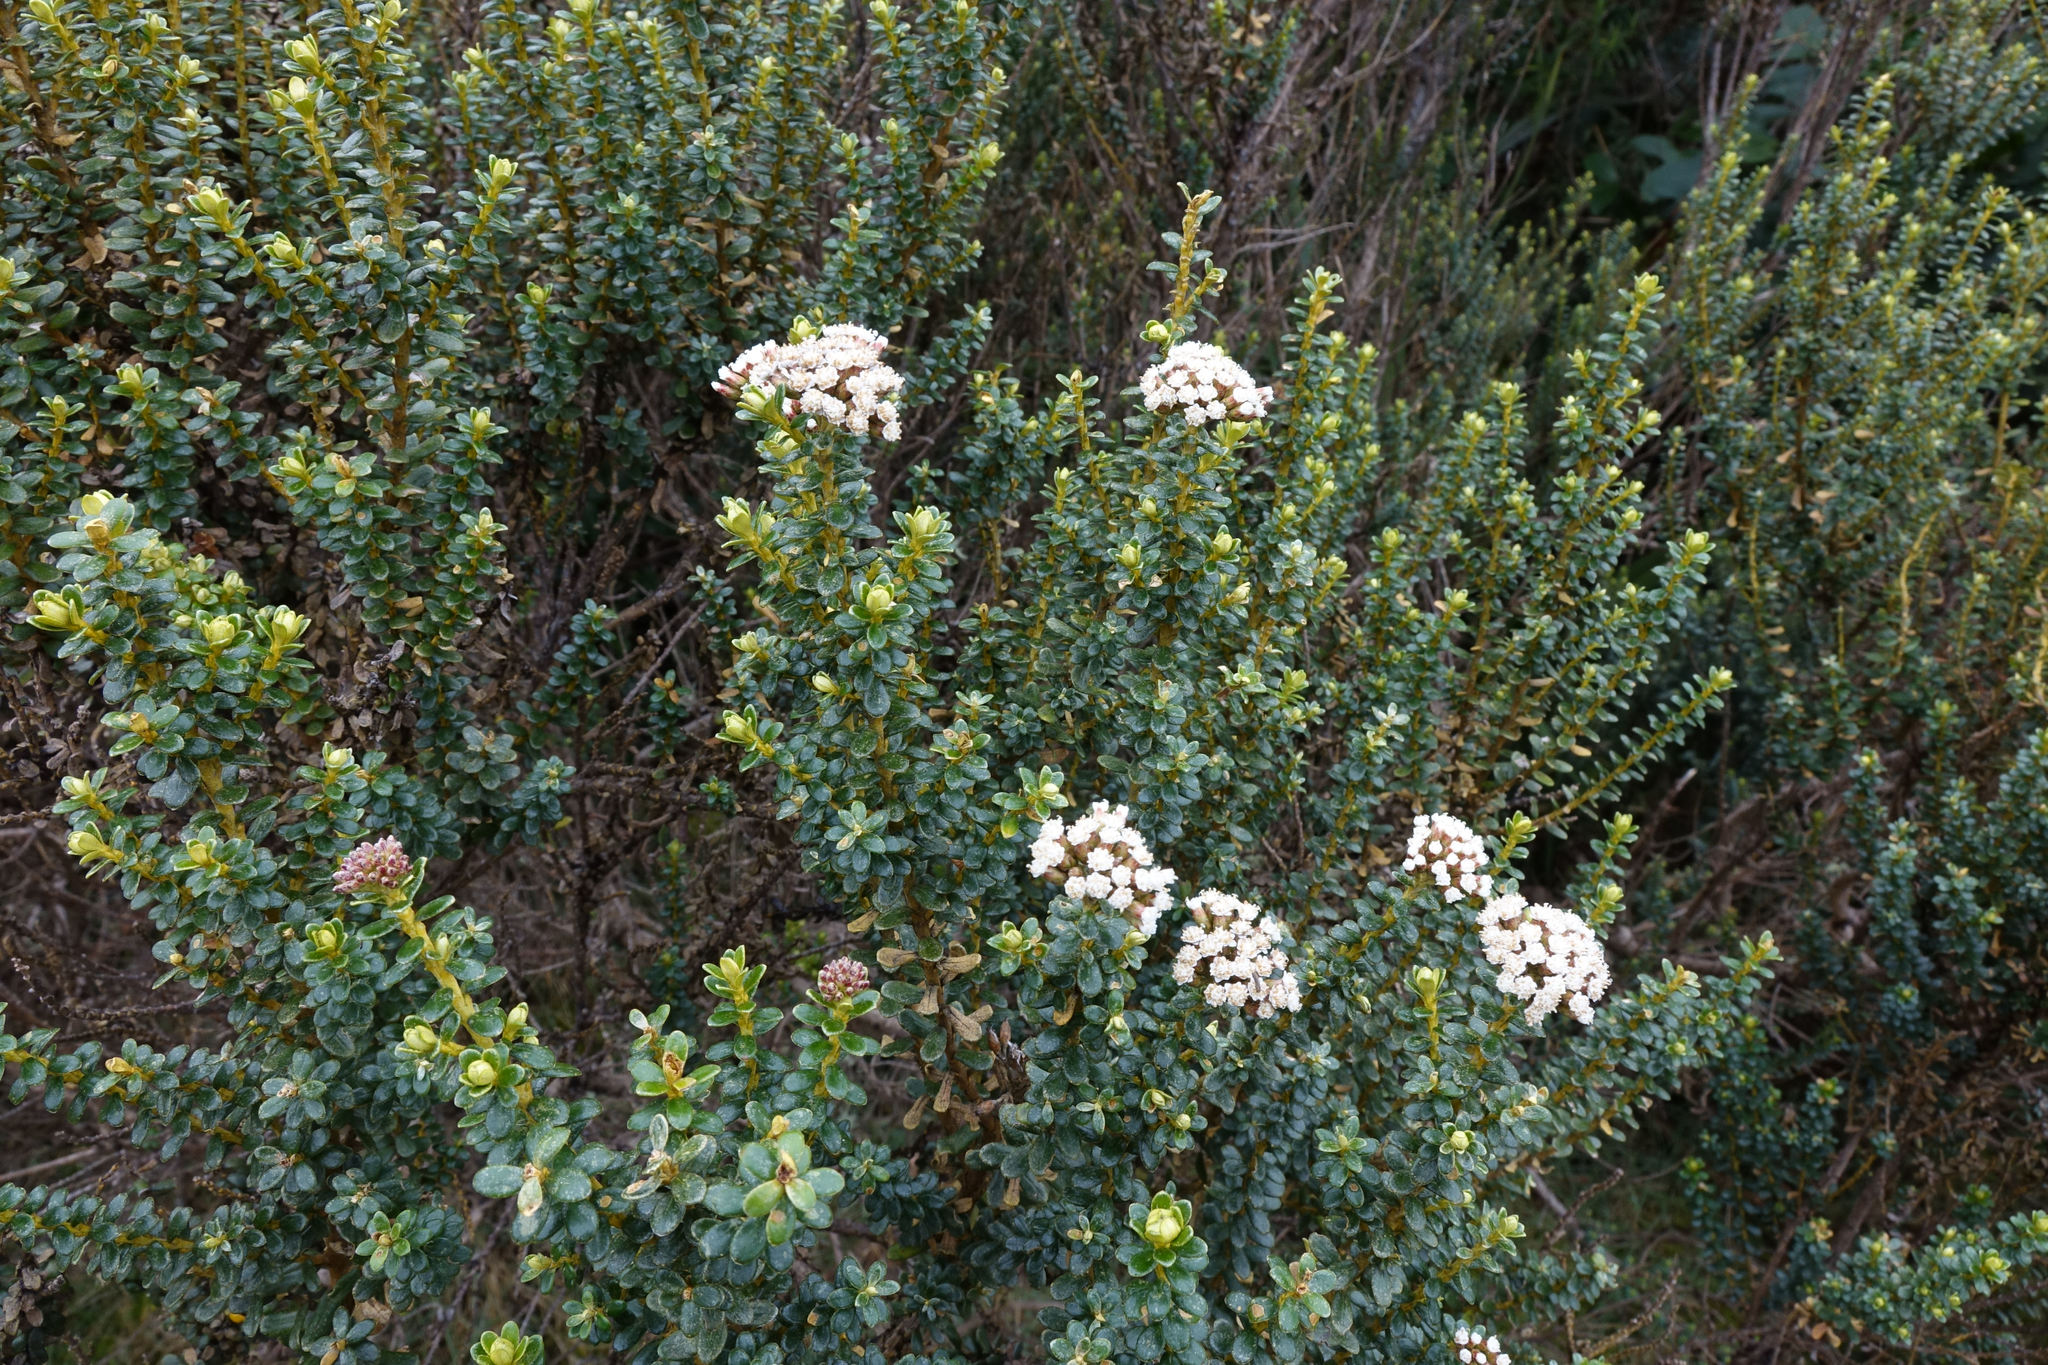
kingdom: Plantae
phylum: Tracheophyta
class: Magnoliopsida
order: Asterales
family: Asteraceae
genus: Ozothamnus
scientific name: Ozothamnus leptophyllus
